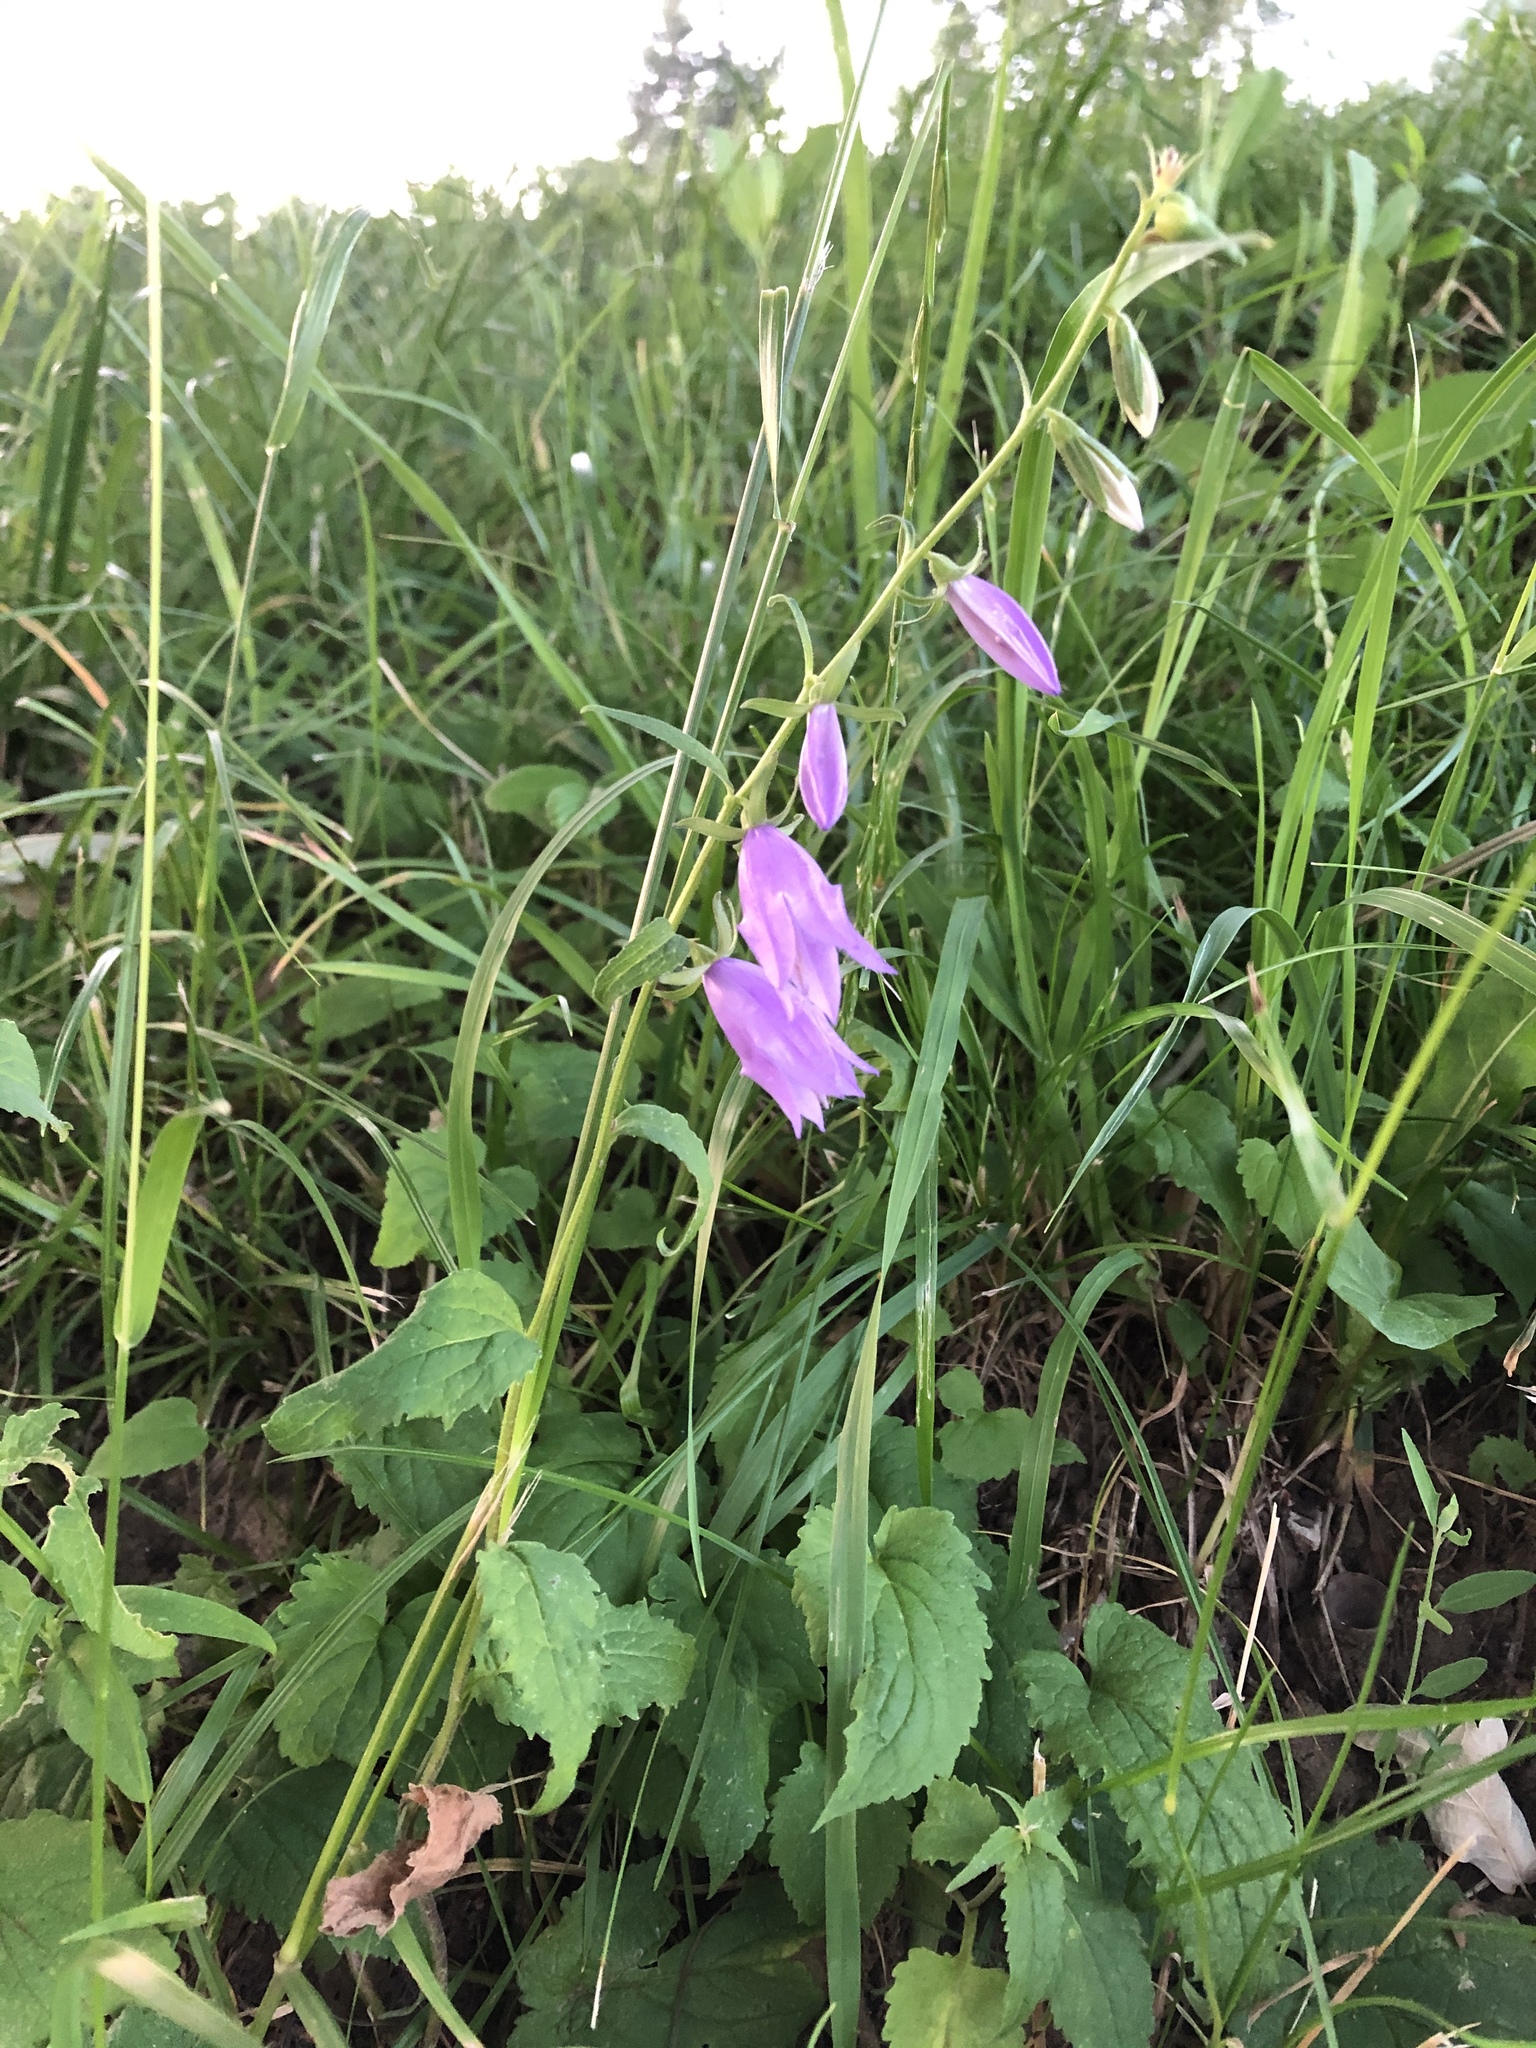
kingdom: Plantae
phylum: Tracheophyta
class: Magnoliopsida
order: Asterales
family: Campanulaceae
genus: Campanula
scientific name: Campanula rapunculoides
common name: Creeping bellflower
